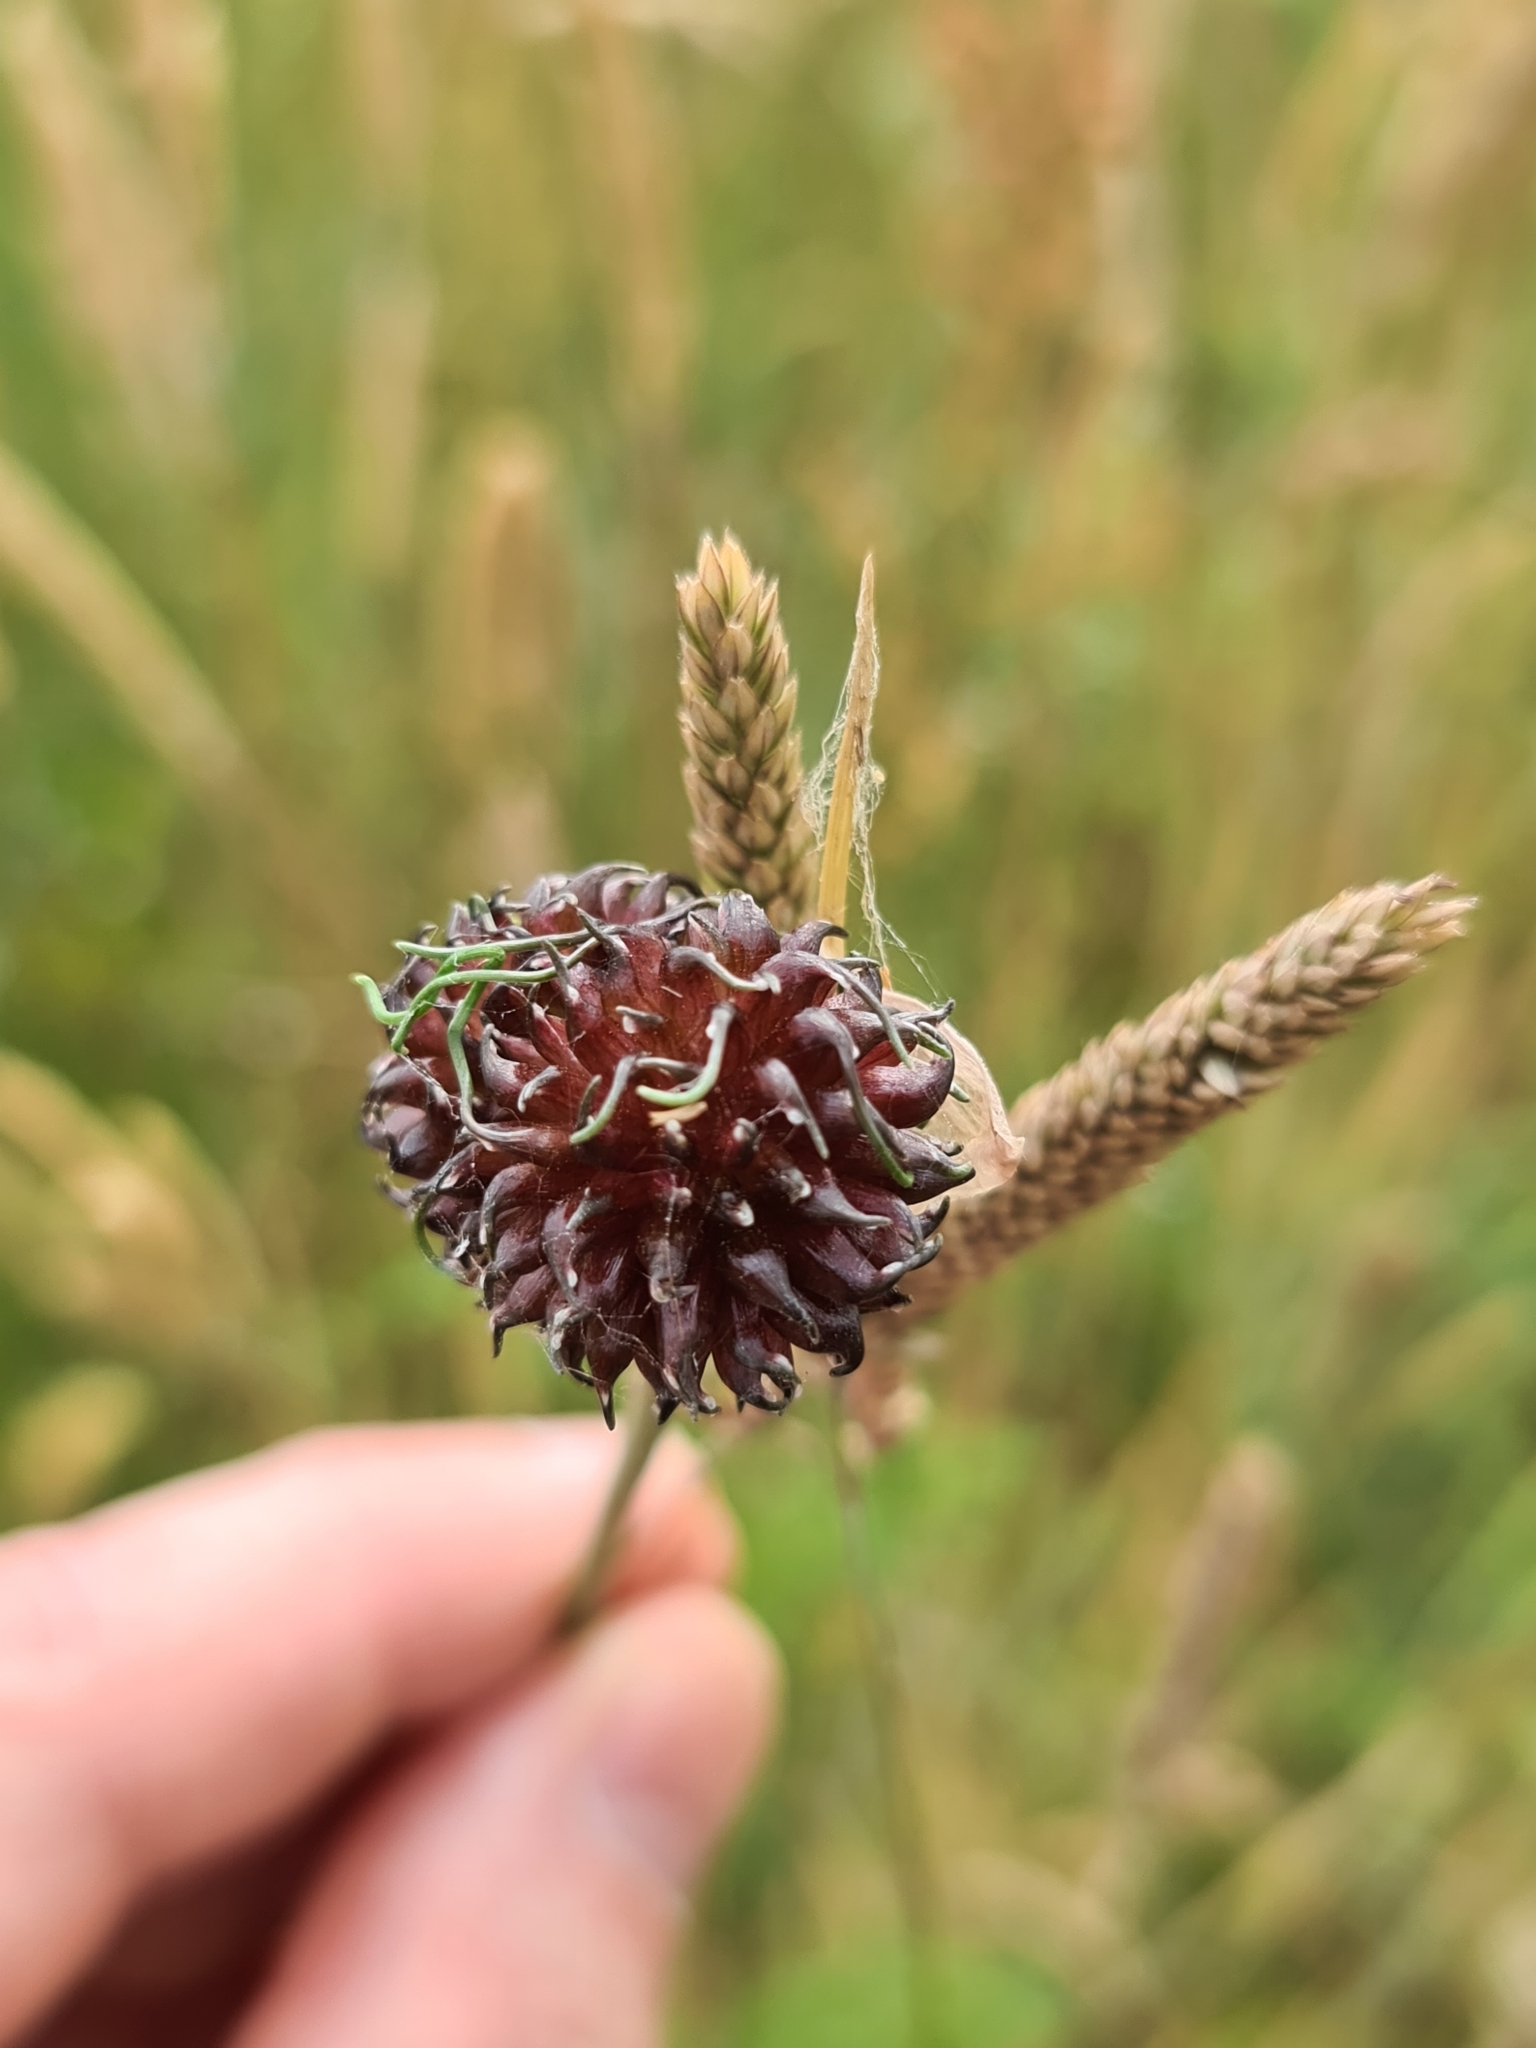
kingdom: Plantae
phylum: Tracheophyta
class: Liliopsida
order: Asparagales
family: Amaryllidaceae
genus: Allium
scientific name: Allium vineale
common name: Crow garlic
